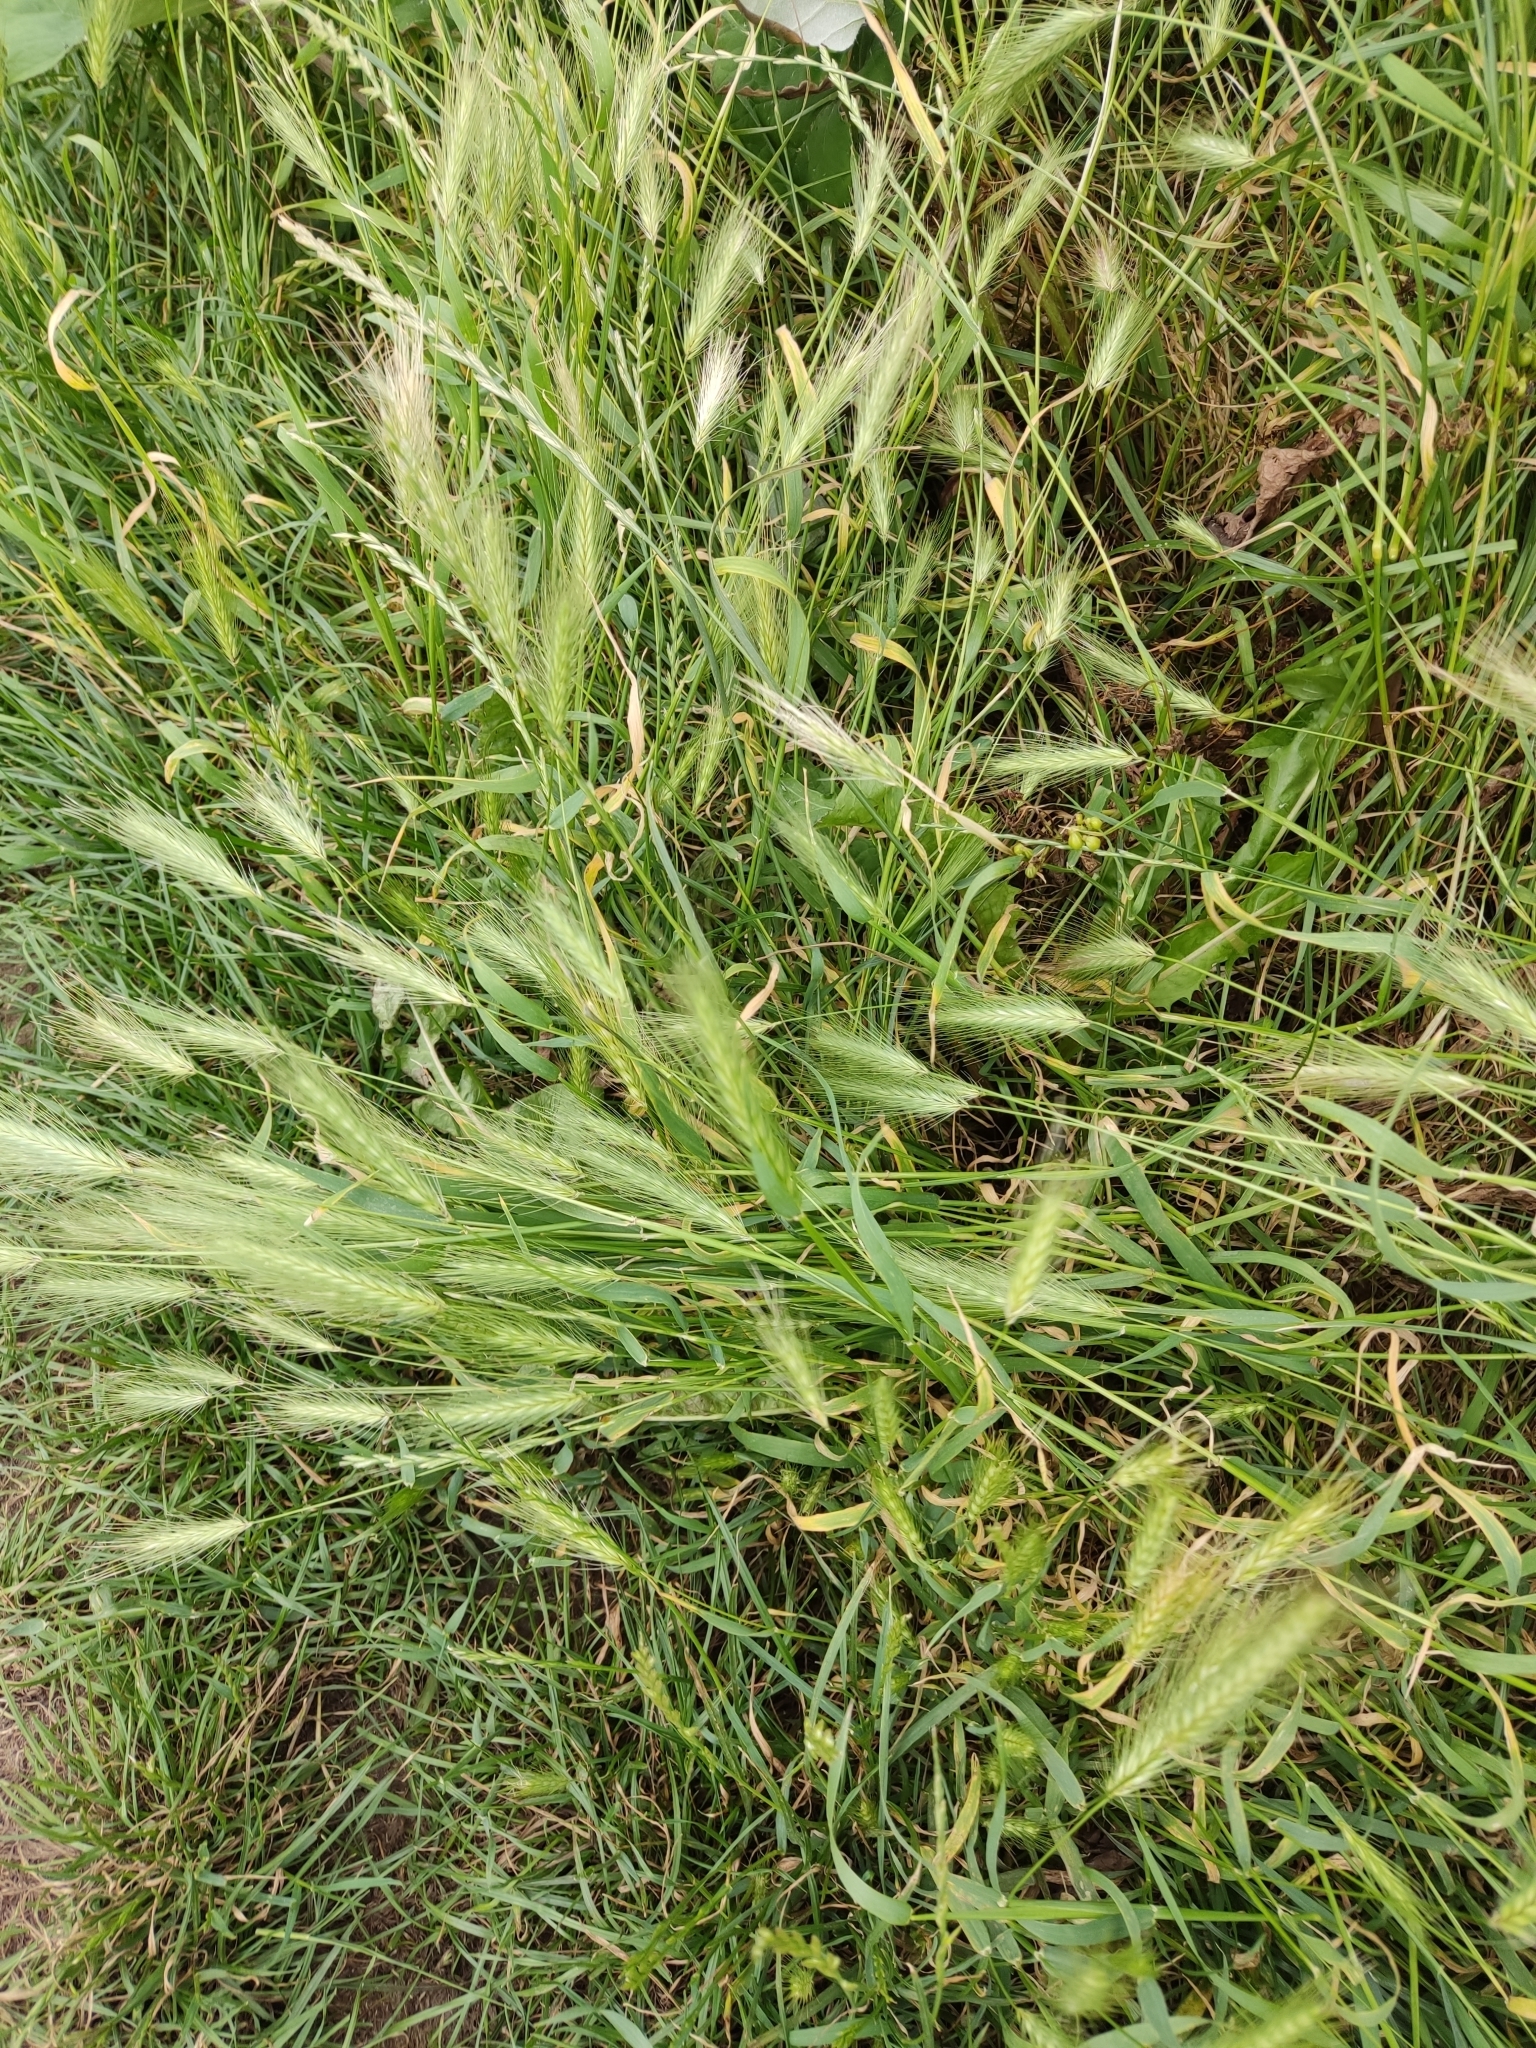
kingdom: Plantae
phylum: Tracheophyta
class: Liliopsida
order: Poales
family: Poaceae
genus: Hordeum
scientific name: Hordeum murinum
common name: Wall barley
